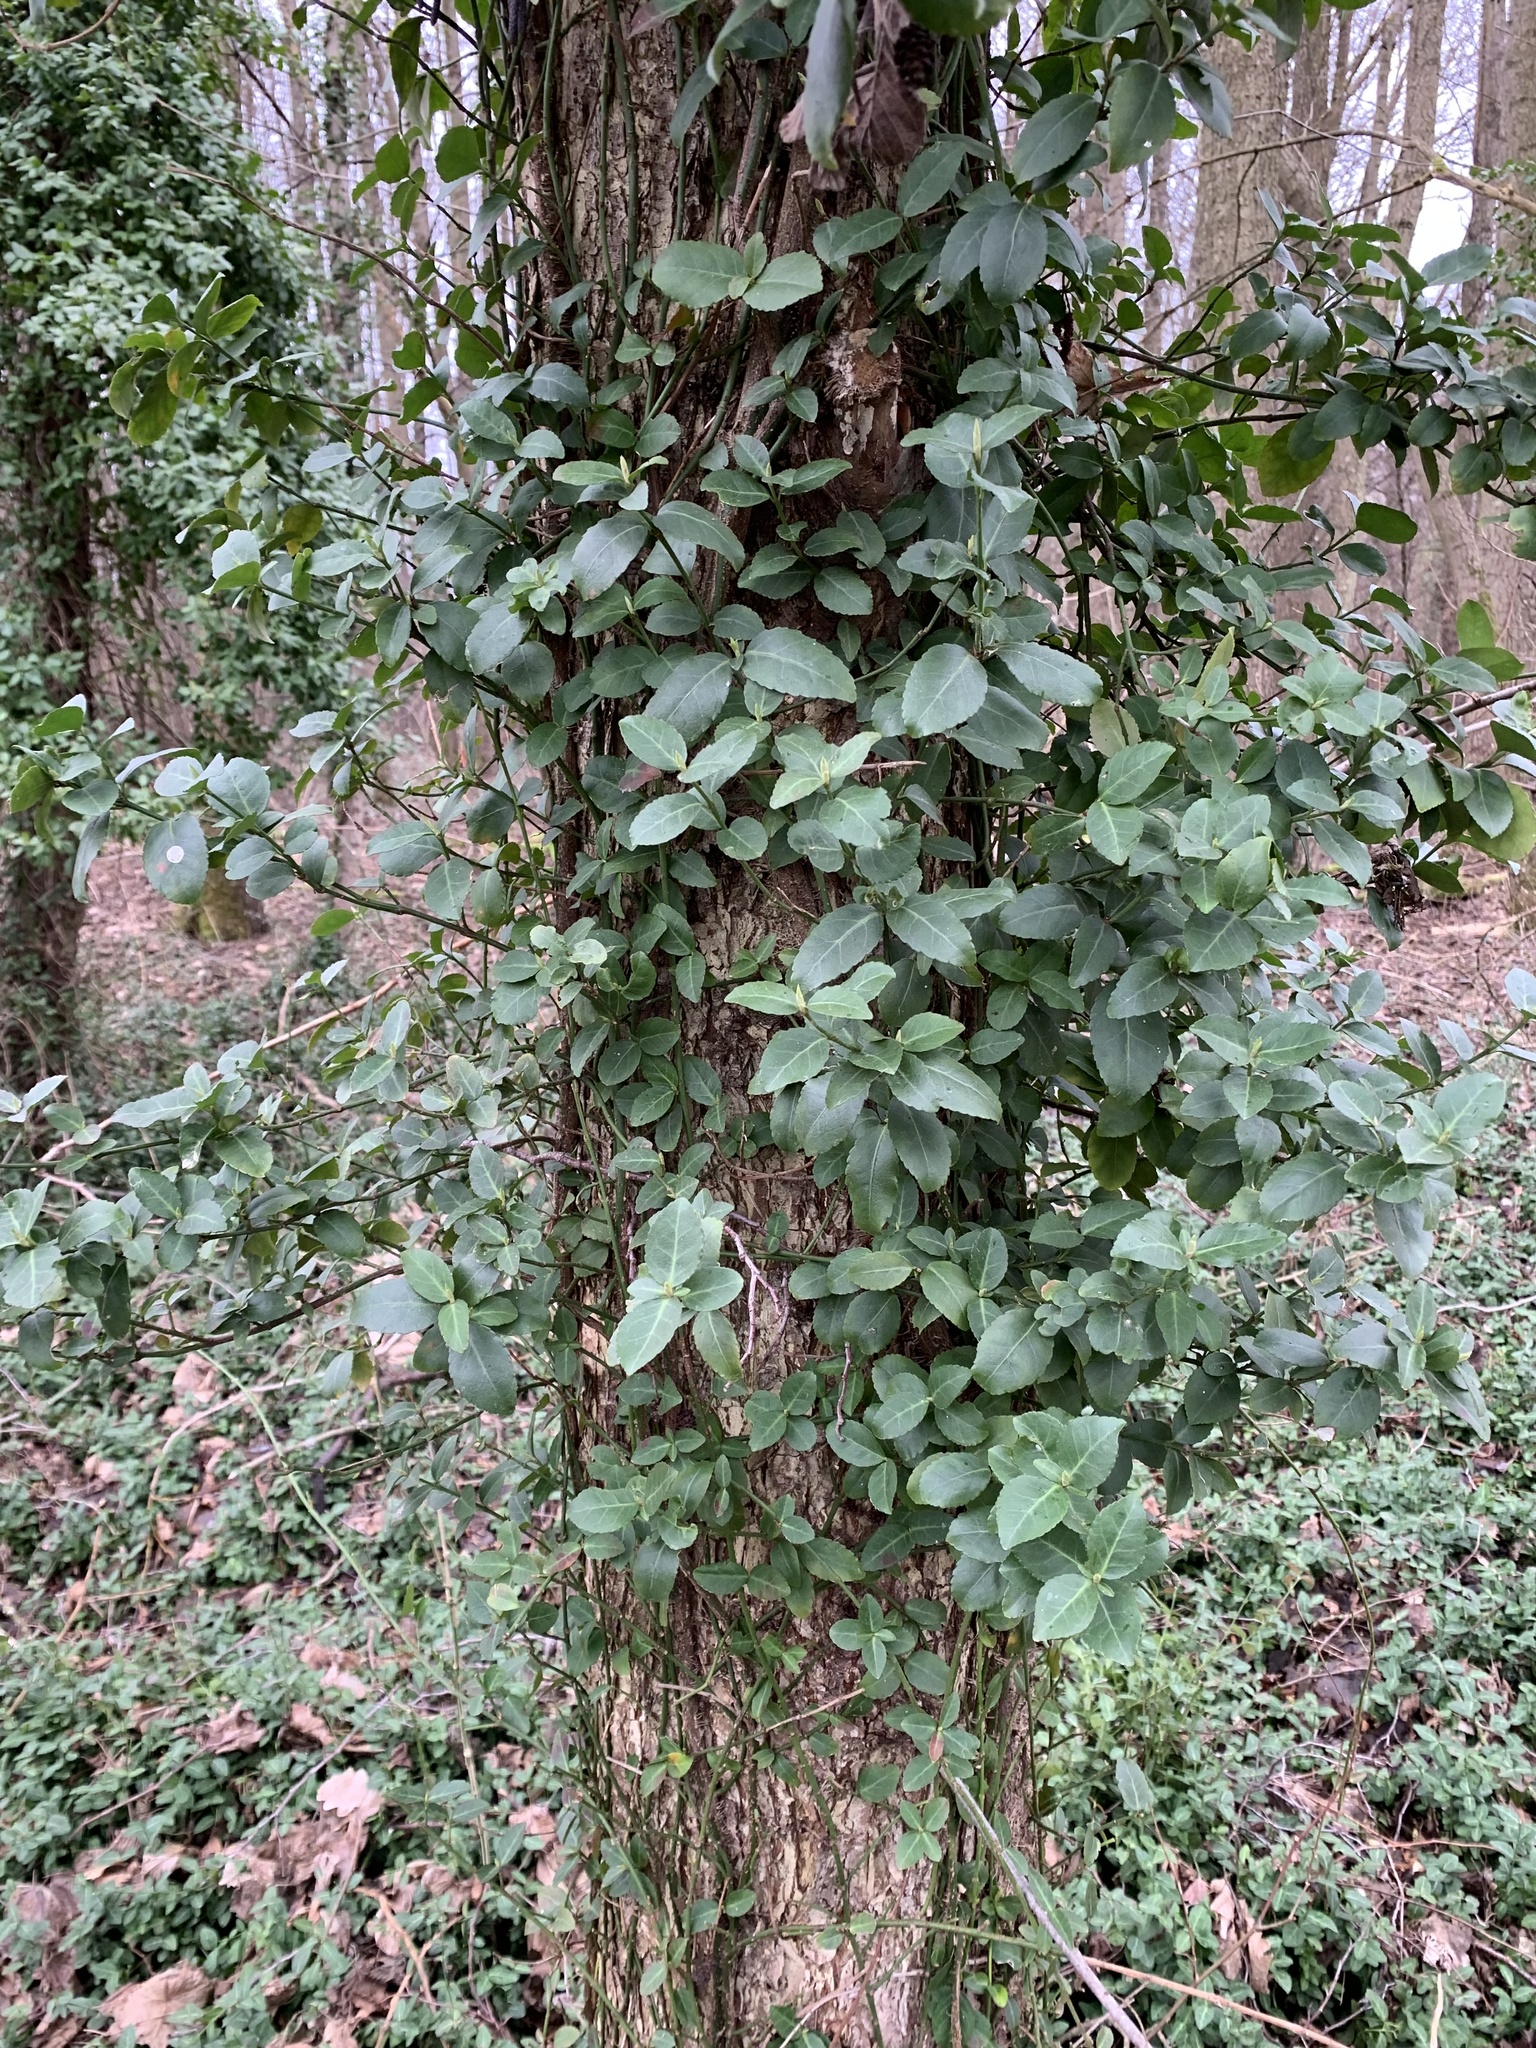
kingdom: Plantae
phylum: Tracheophyta
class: Magnoliopsida
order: Celastrales
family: Celastraceae
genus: Euonymus
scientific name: Euonymus fortunei
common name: Climbing euonymus
